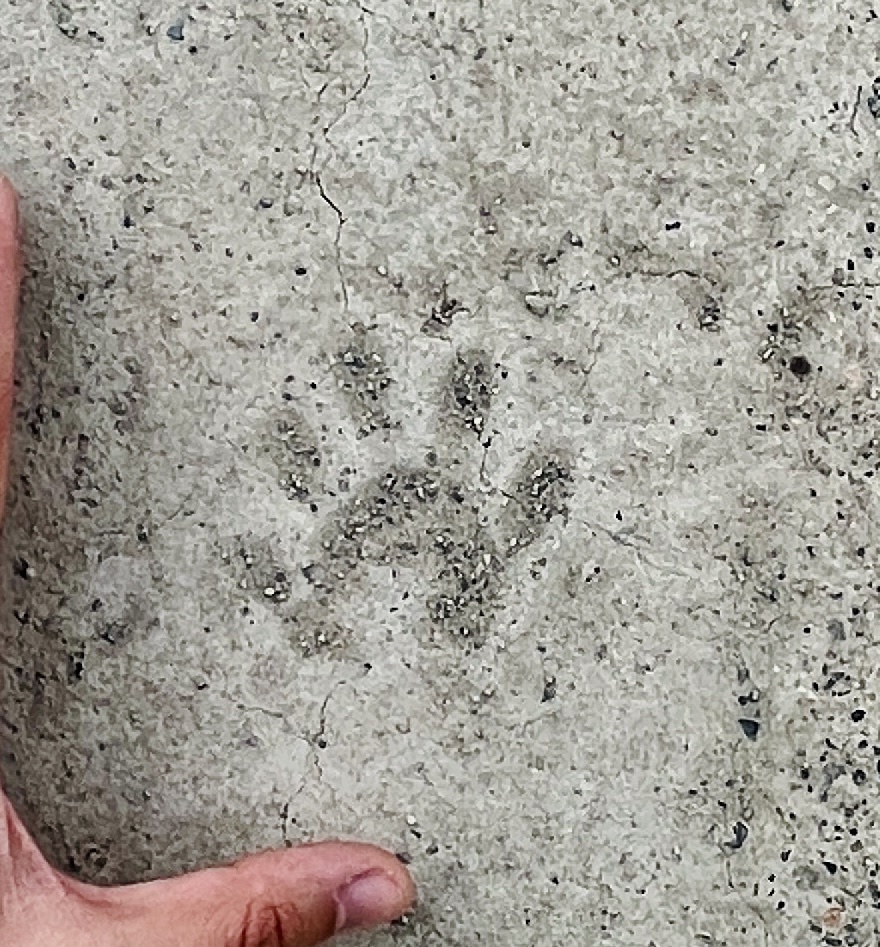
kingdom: Animalia
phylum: Chordata
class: Mammalia
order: Carnivora
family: Procyonidae
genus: Procyon
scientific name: Procyon lotor
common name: Raccoon
